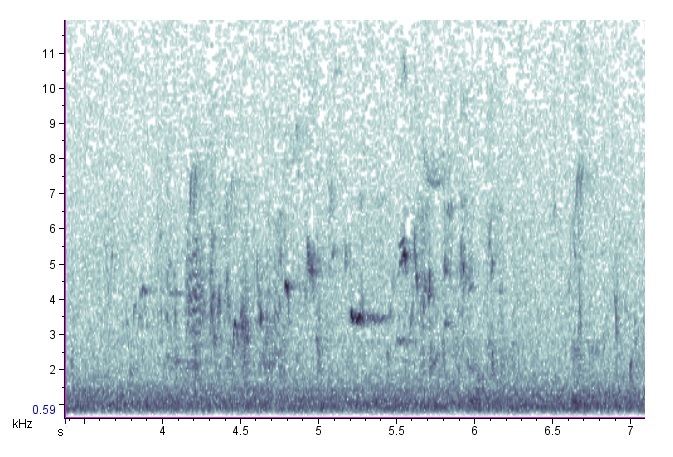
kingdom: Animalia
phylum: Chordata
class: Aves
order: Passeriformes
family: Icteridae
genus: Euphagus
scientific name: Euphagus carolinus
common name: Rusty blackbird
